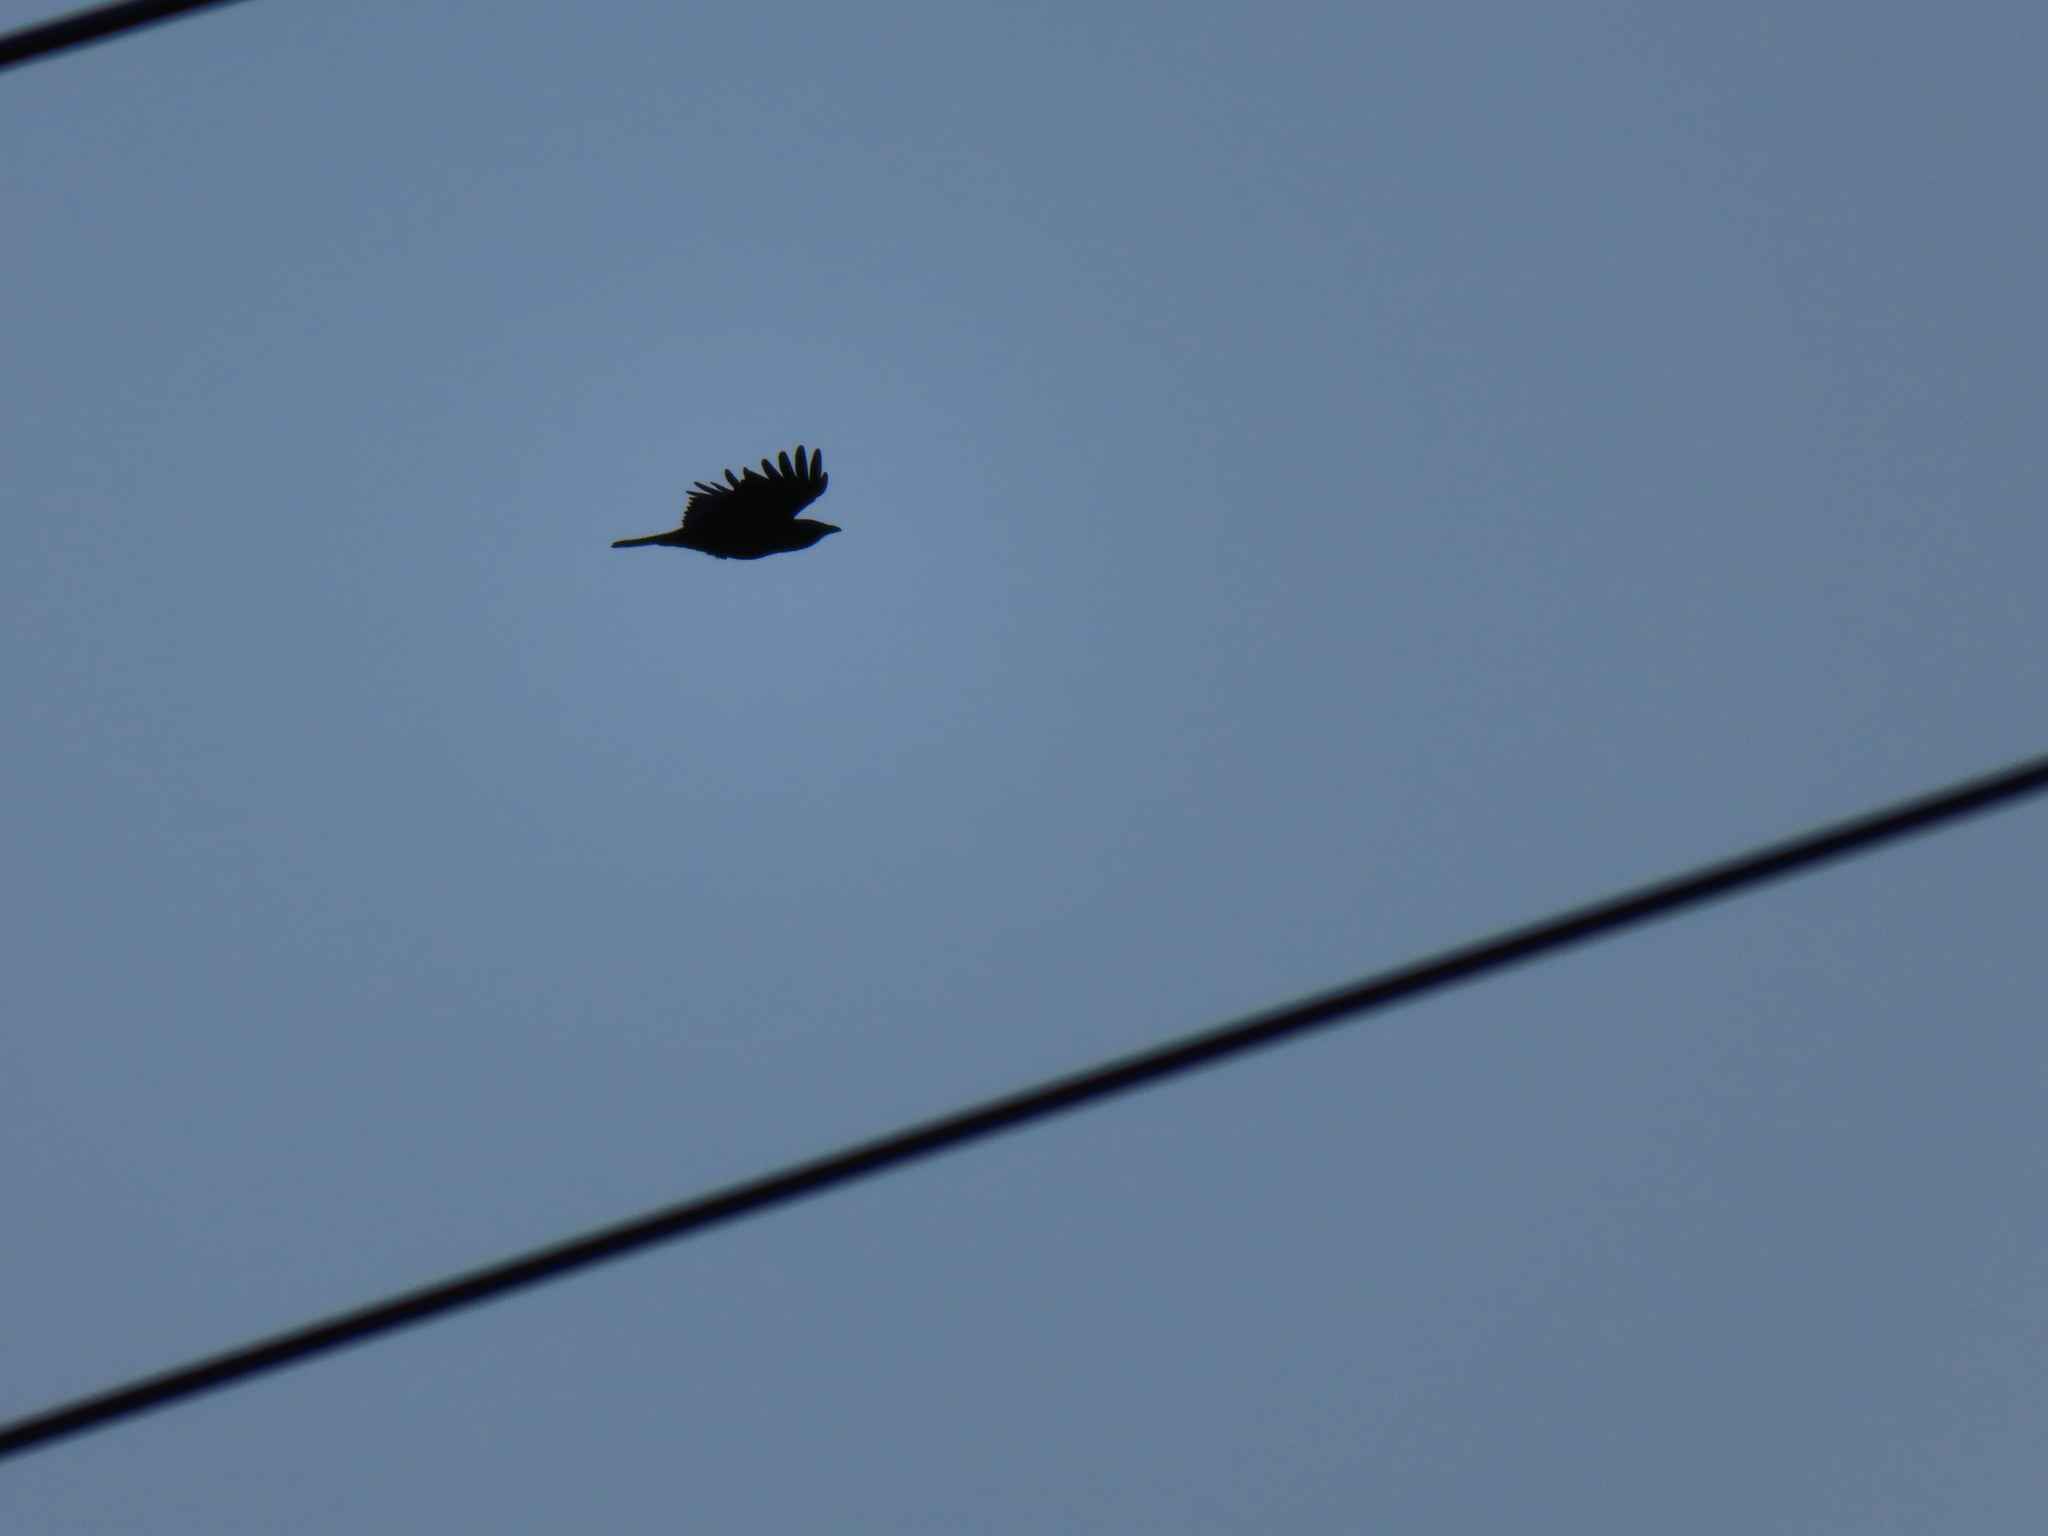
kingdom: Animalia
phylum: Chordata
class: Aves
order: Passeriformes
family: Corvidae
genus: Corvus
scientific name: Corvus
